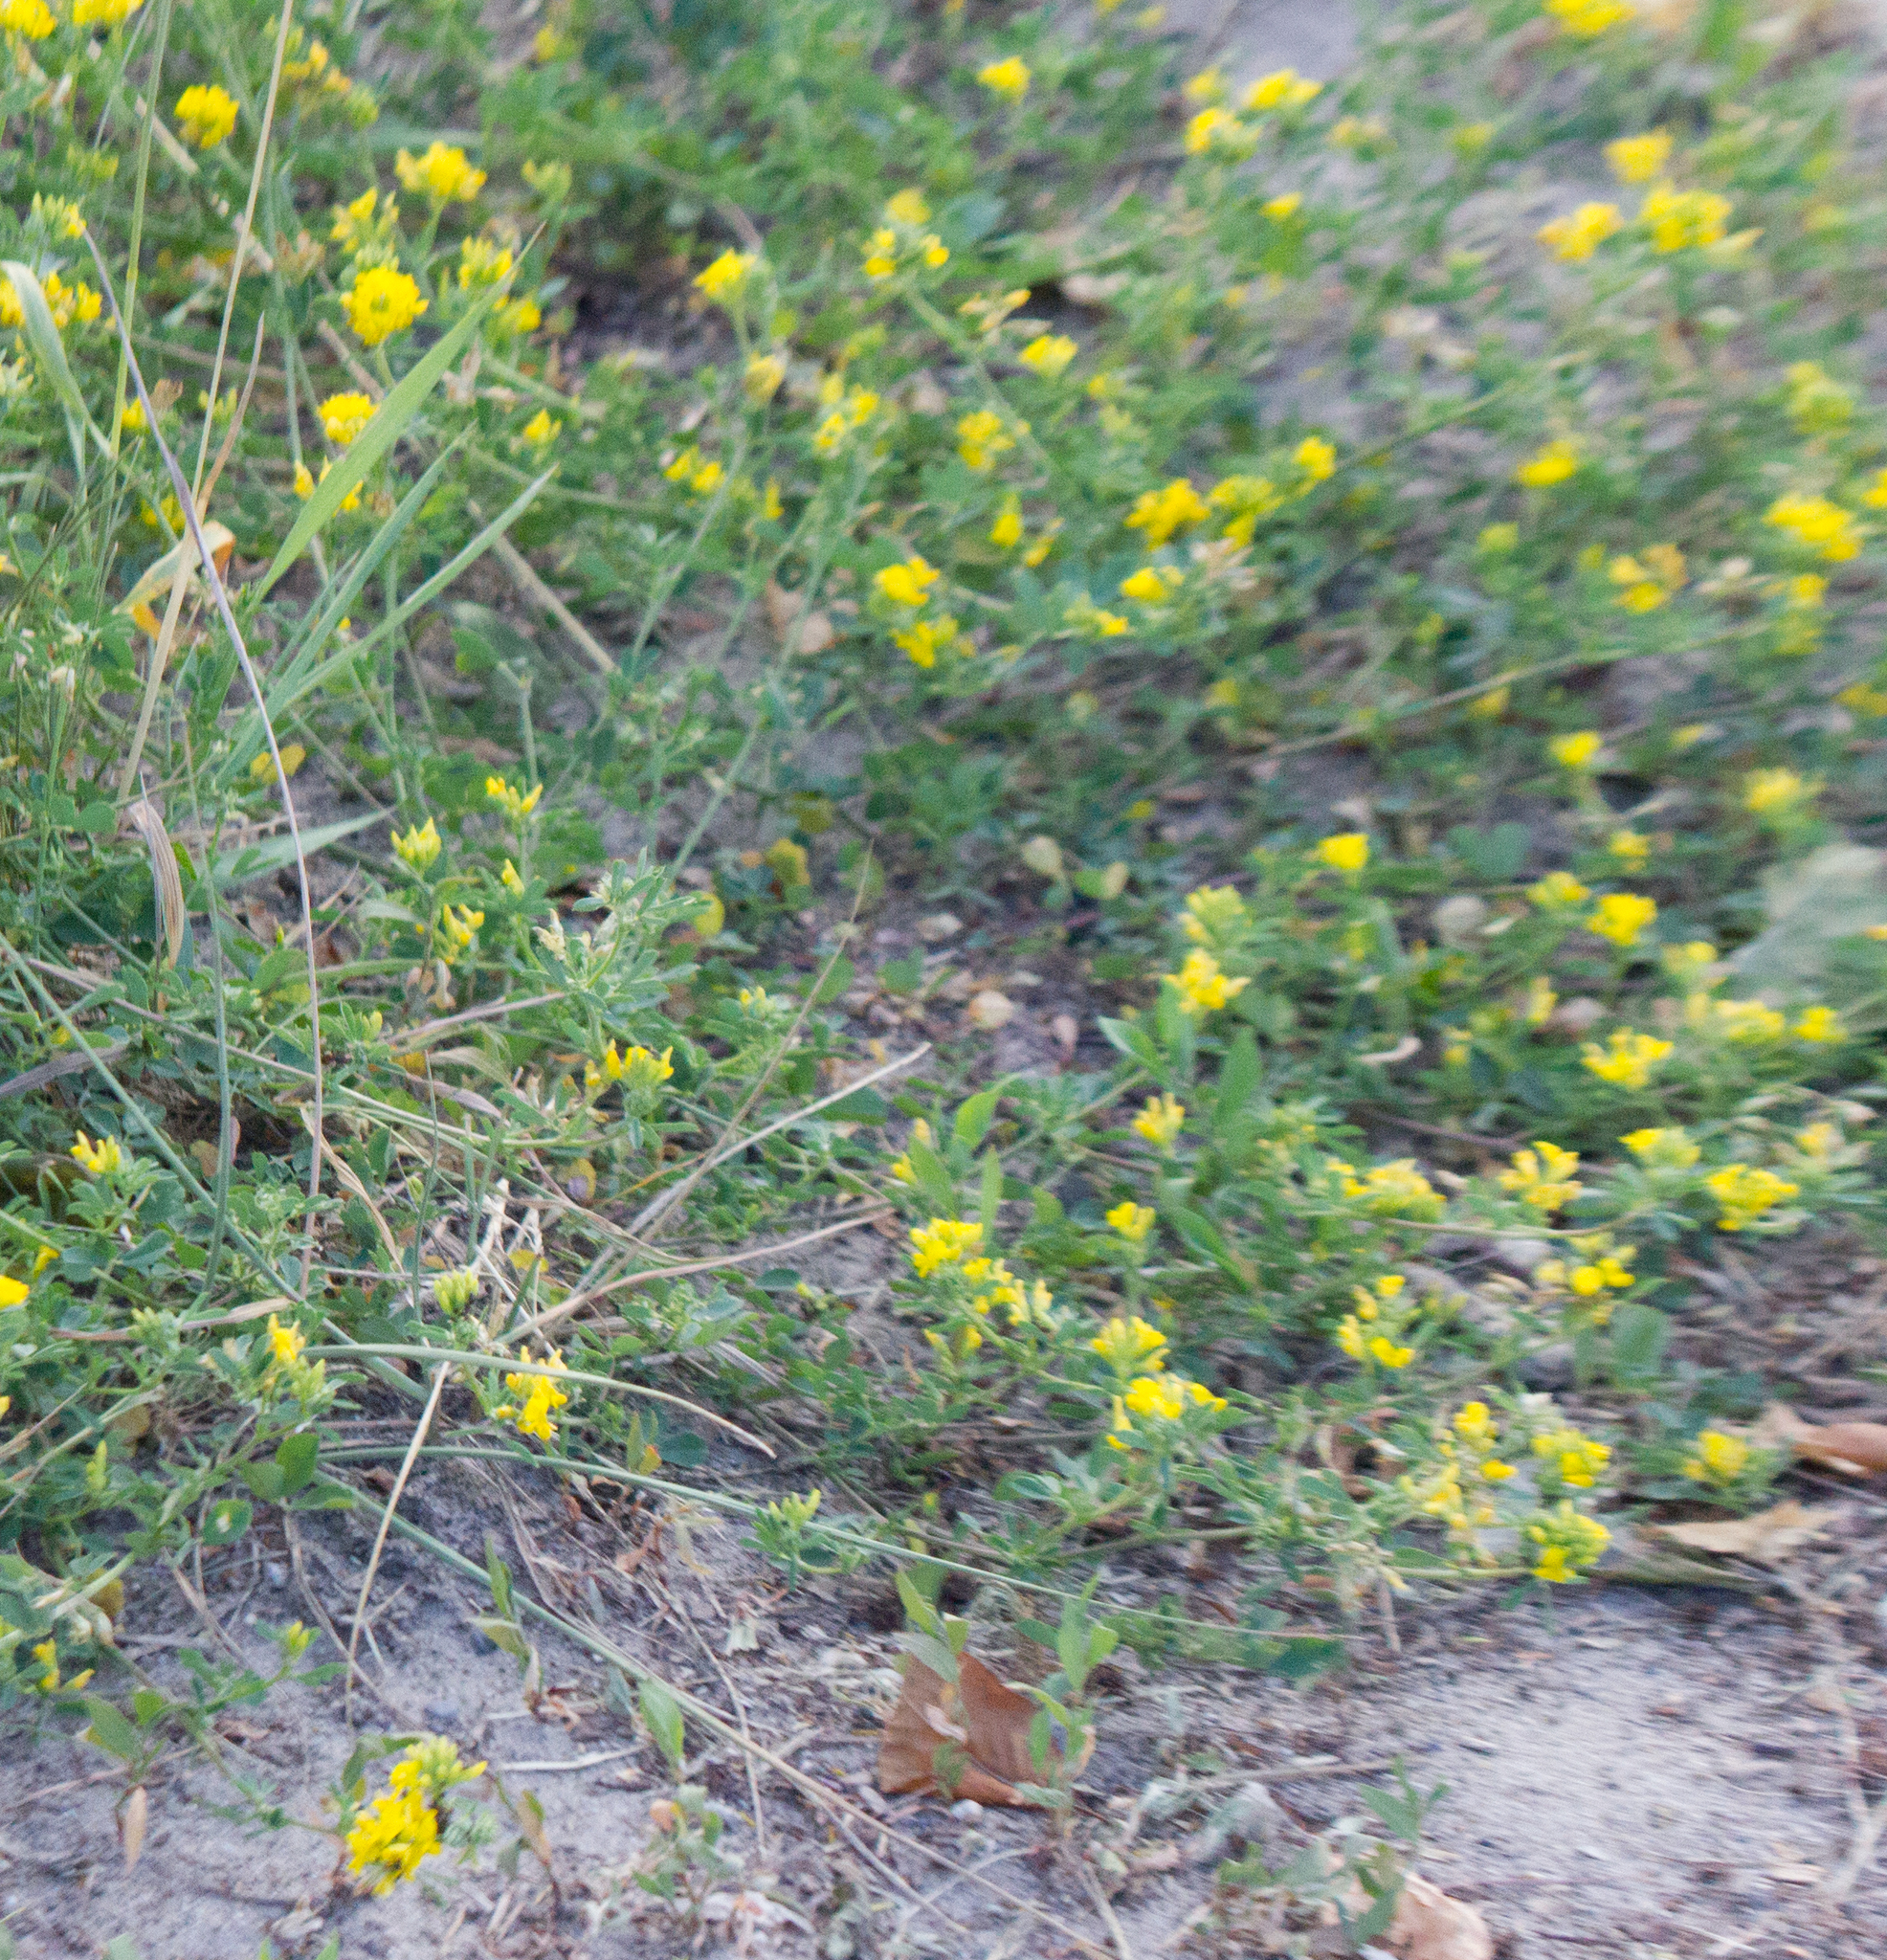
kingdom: Plantae
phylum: Tracheophyta
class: Magnoliopsida
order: Fabales
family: Fabaceae
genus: Medicago
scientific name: Medicago falcata
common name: Sickle medick
